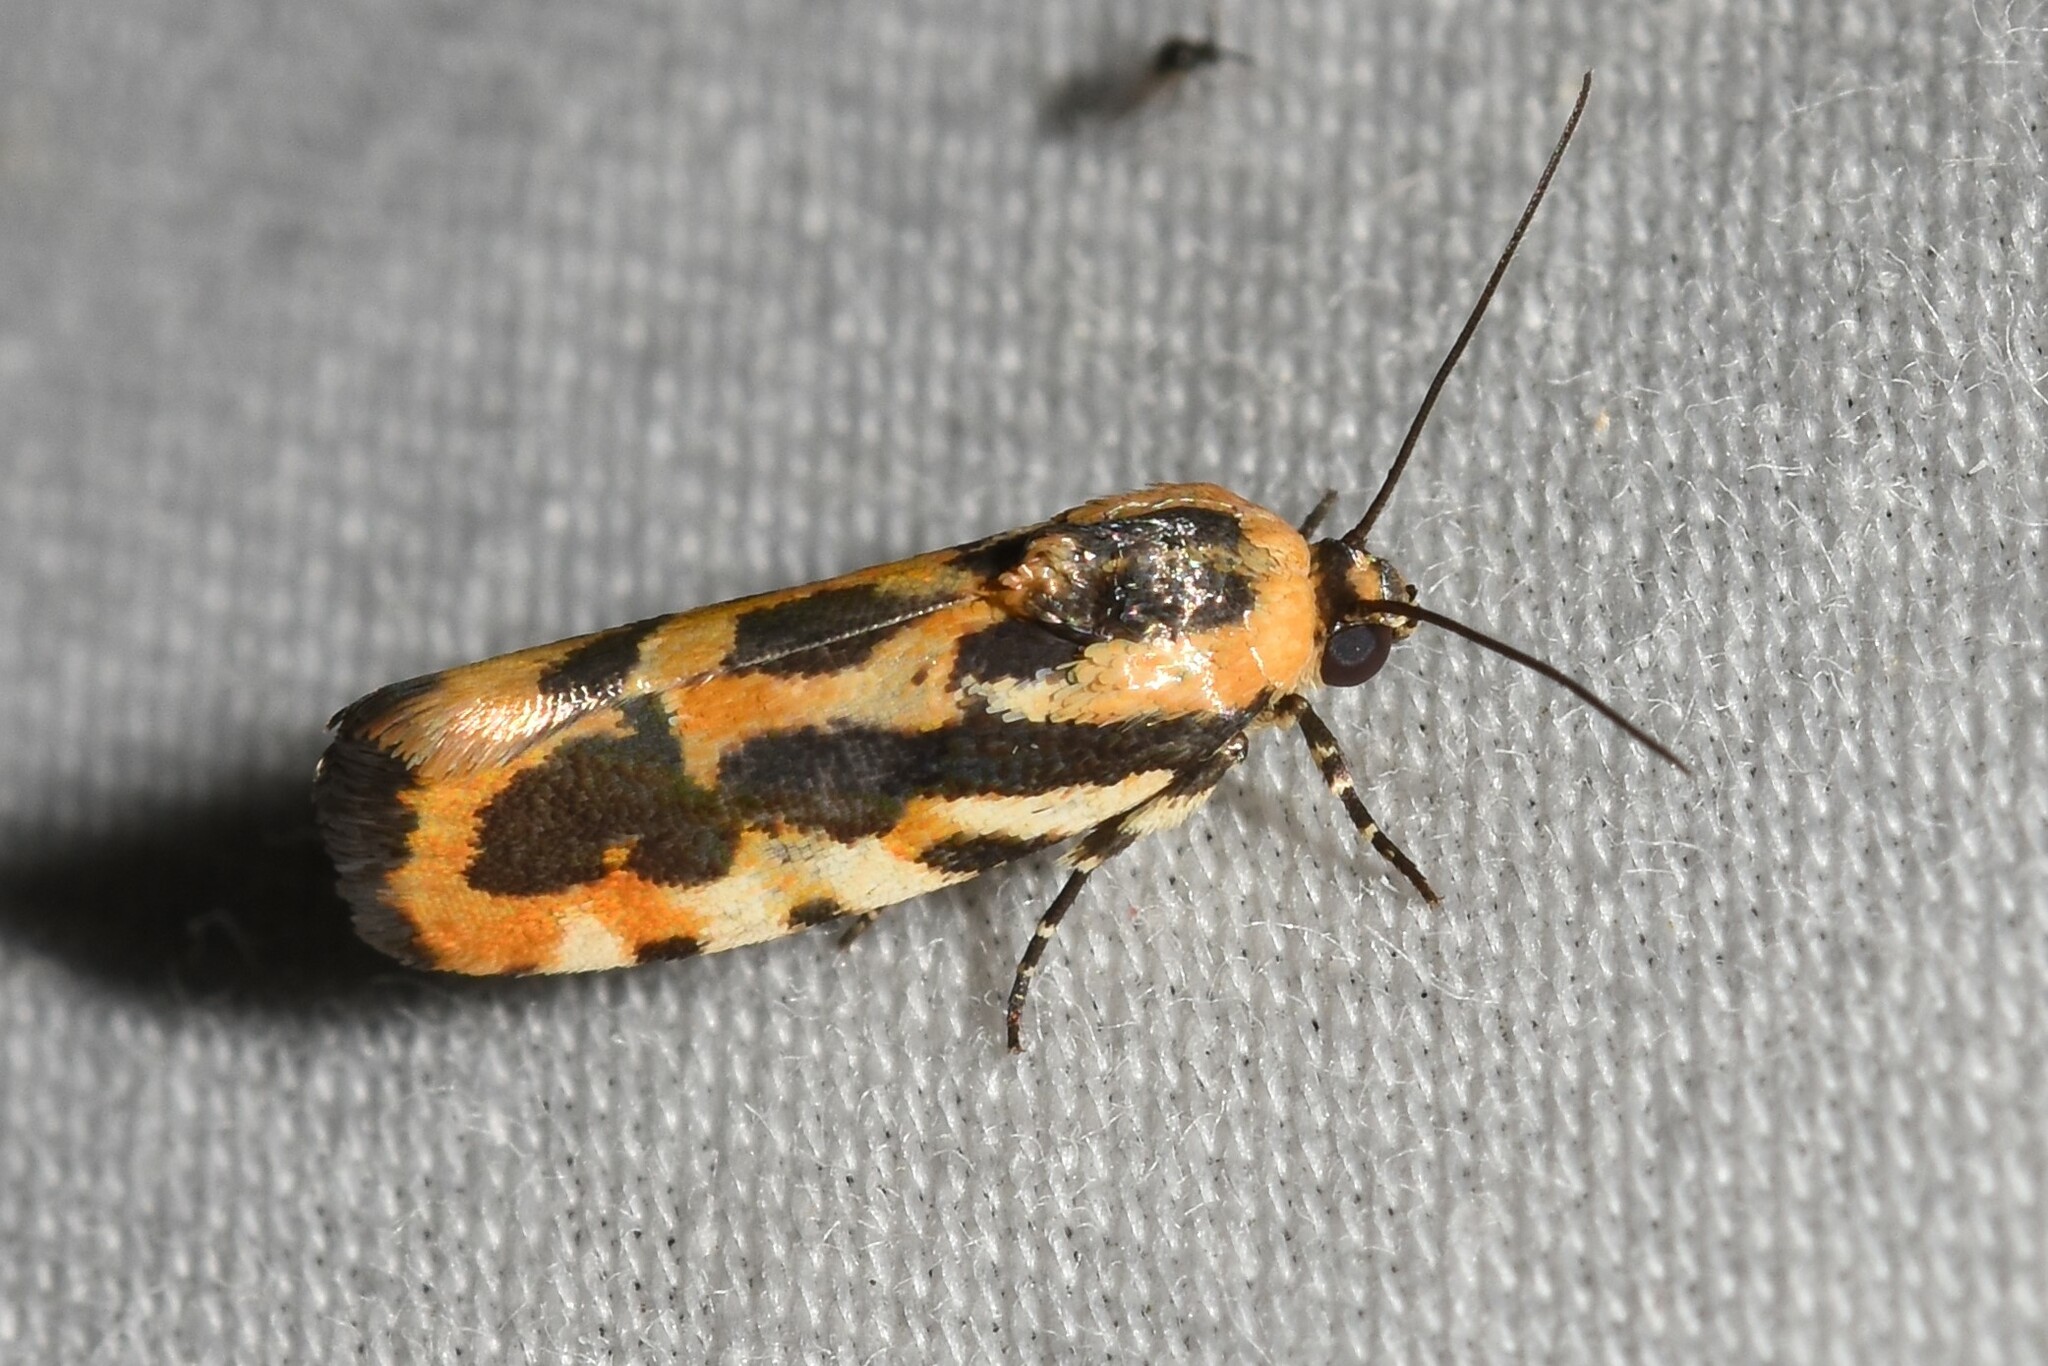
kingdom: Animalia
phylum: Arthropoda
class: Insecta
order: Lepidoptera
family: Noctuidae
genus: Acontia
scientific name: Acontia leo
